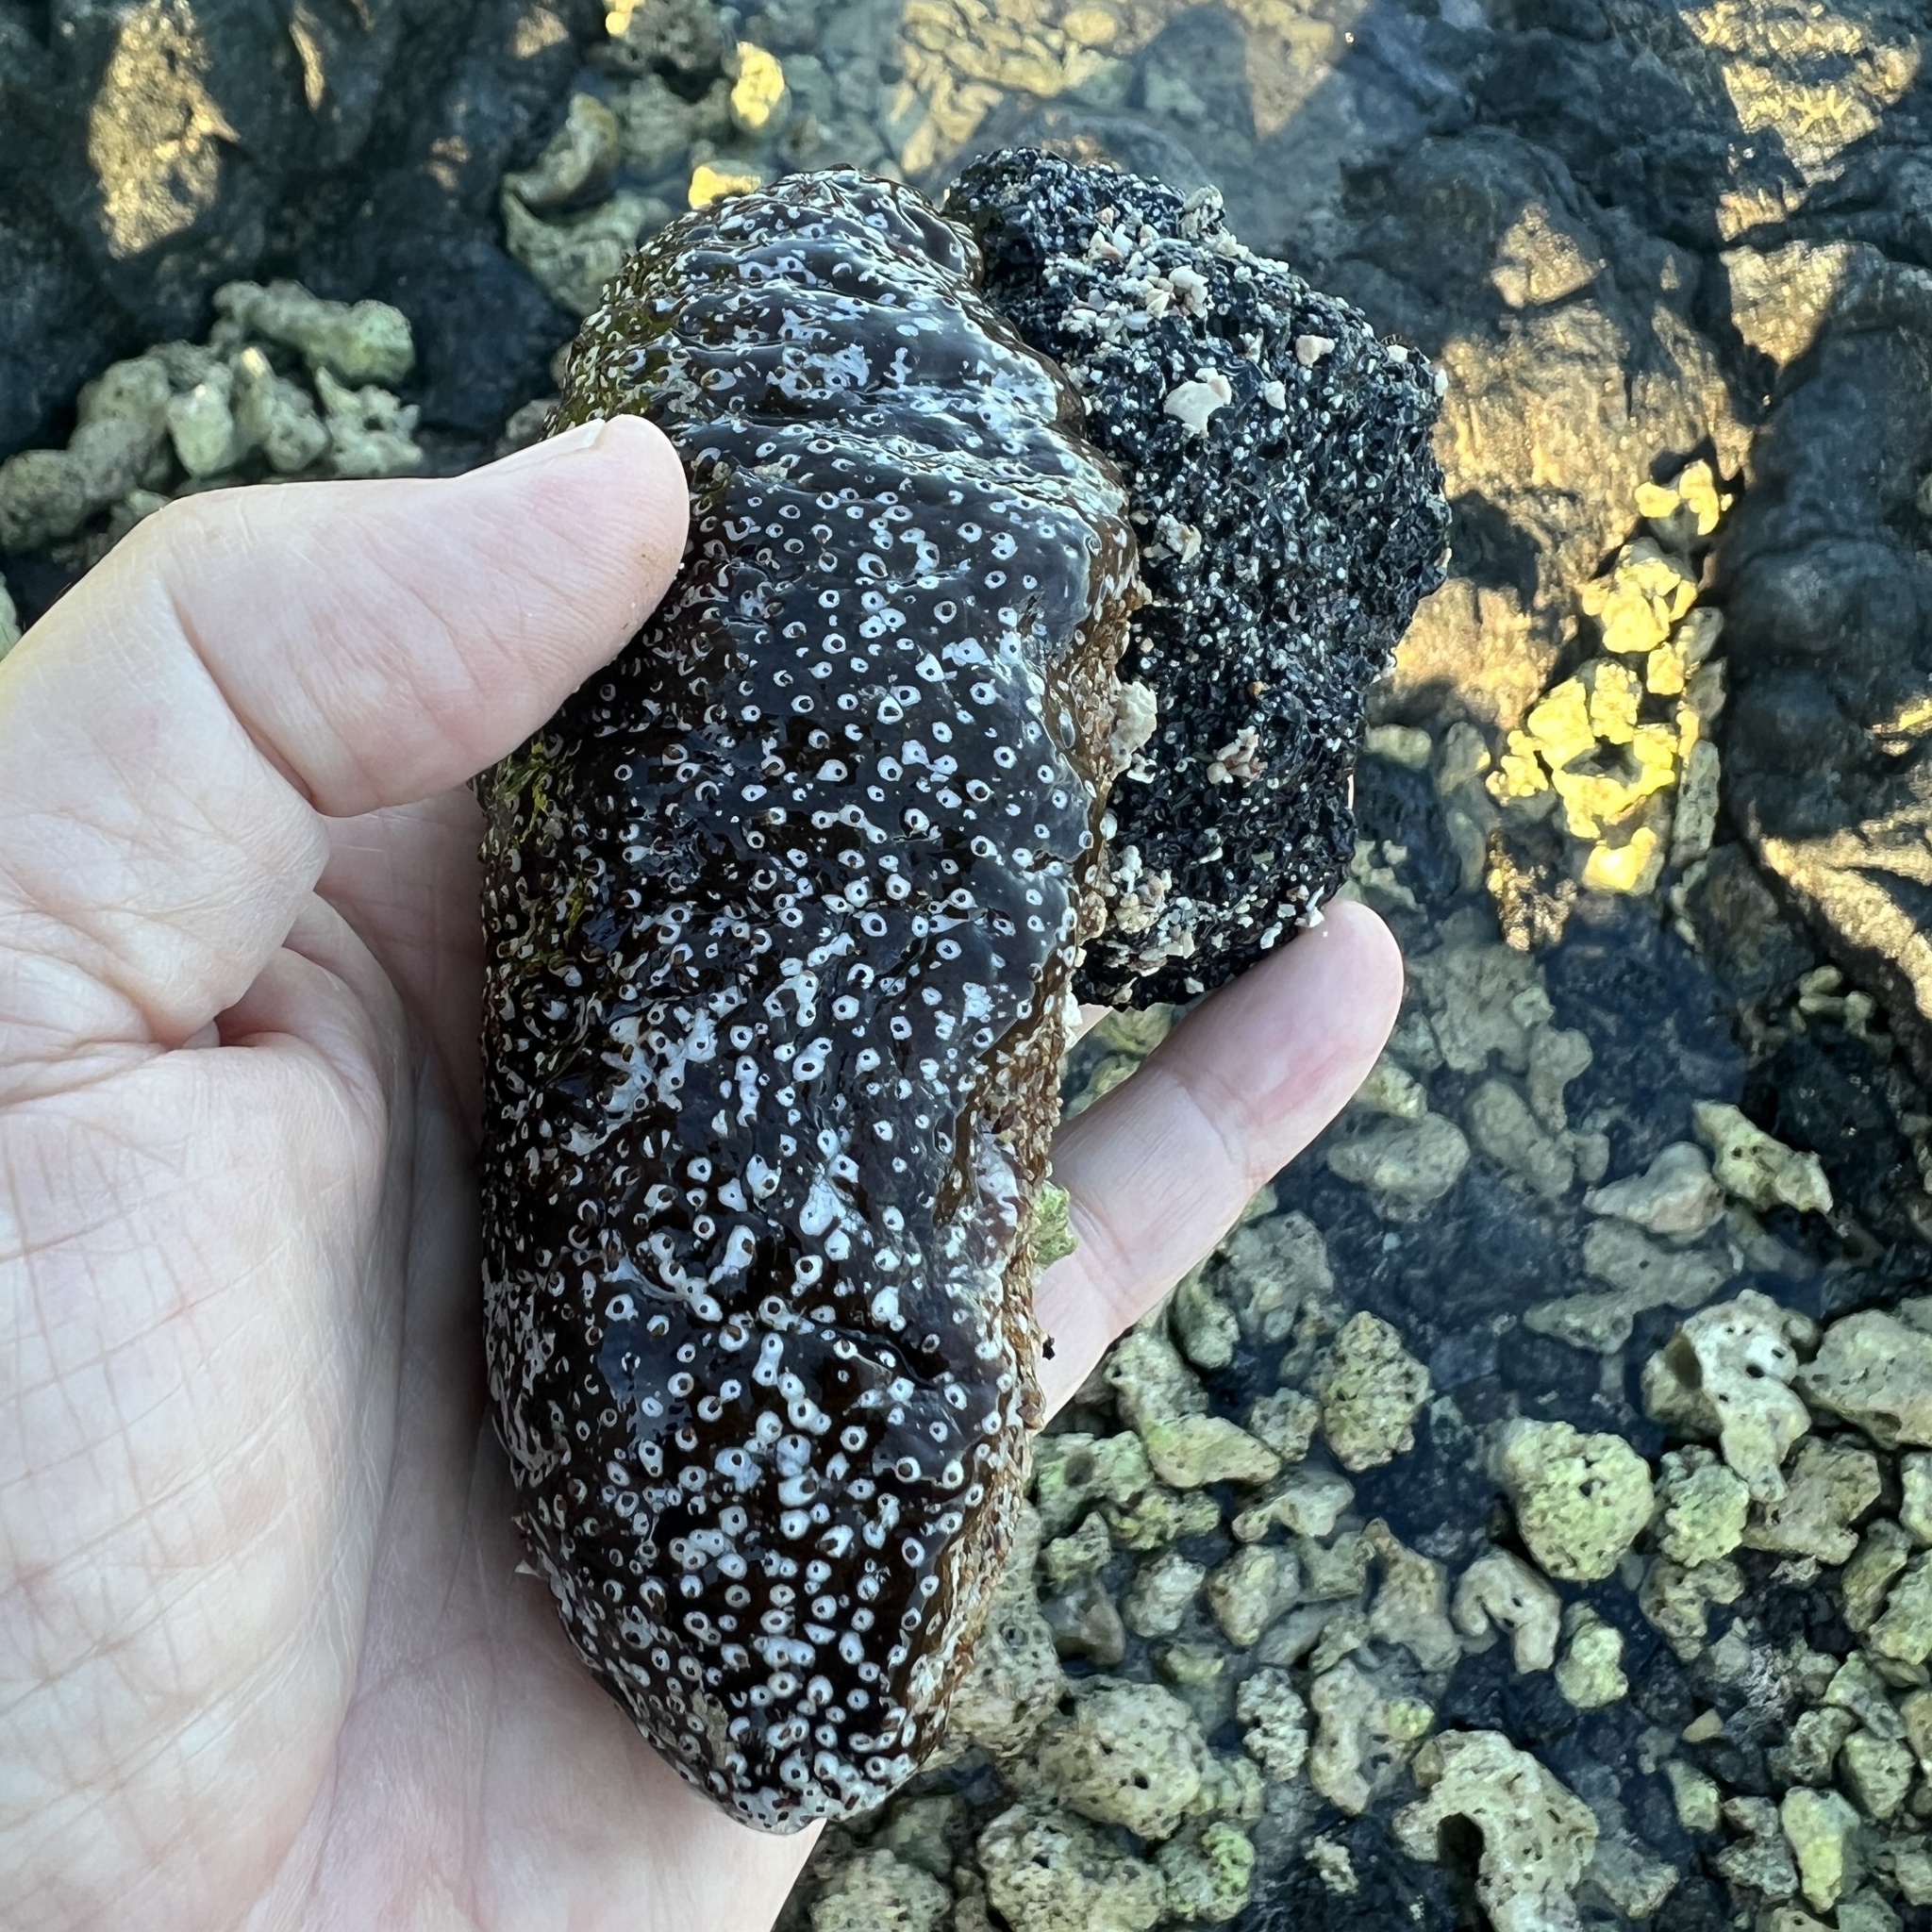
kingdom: Animalia
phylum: Echinodermata
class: Holothuroidea
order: Holothuriida
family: Holothuriidae
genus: Actinopyga
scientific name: Actinopyga varians
